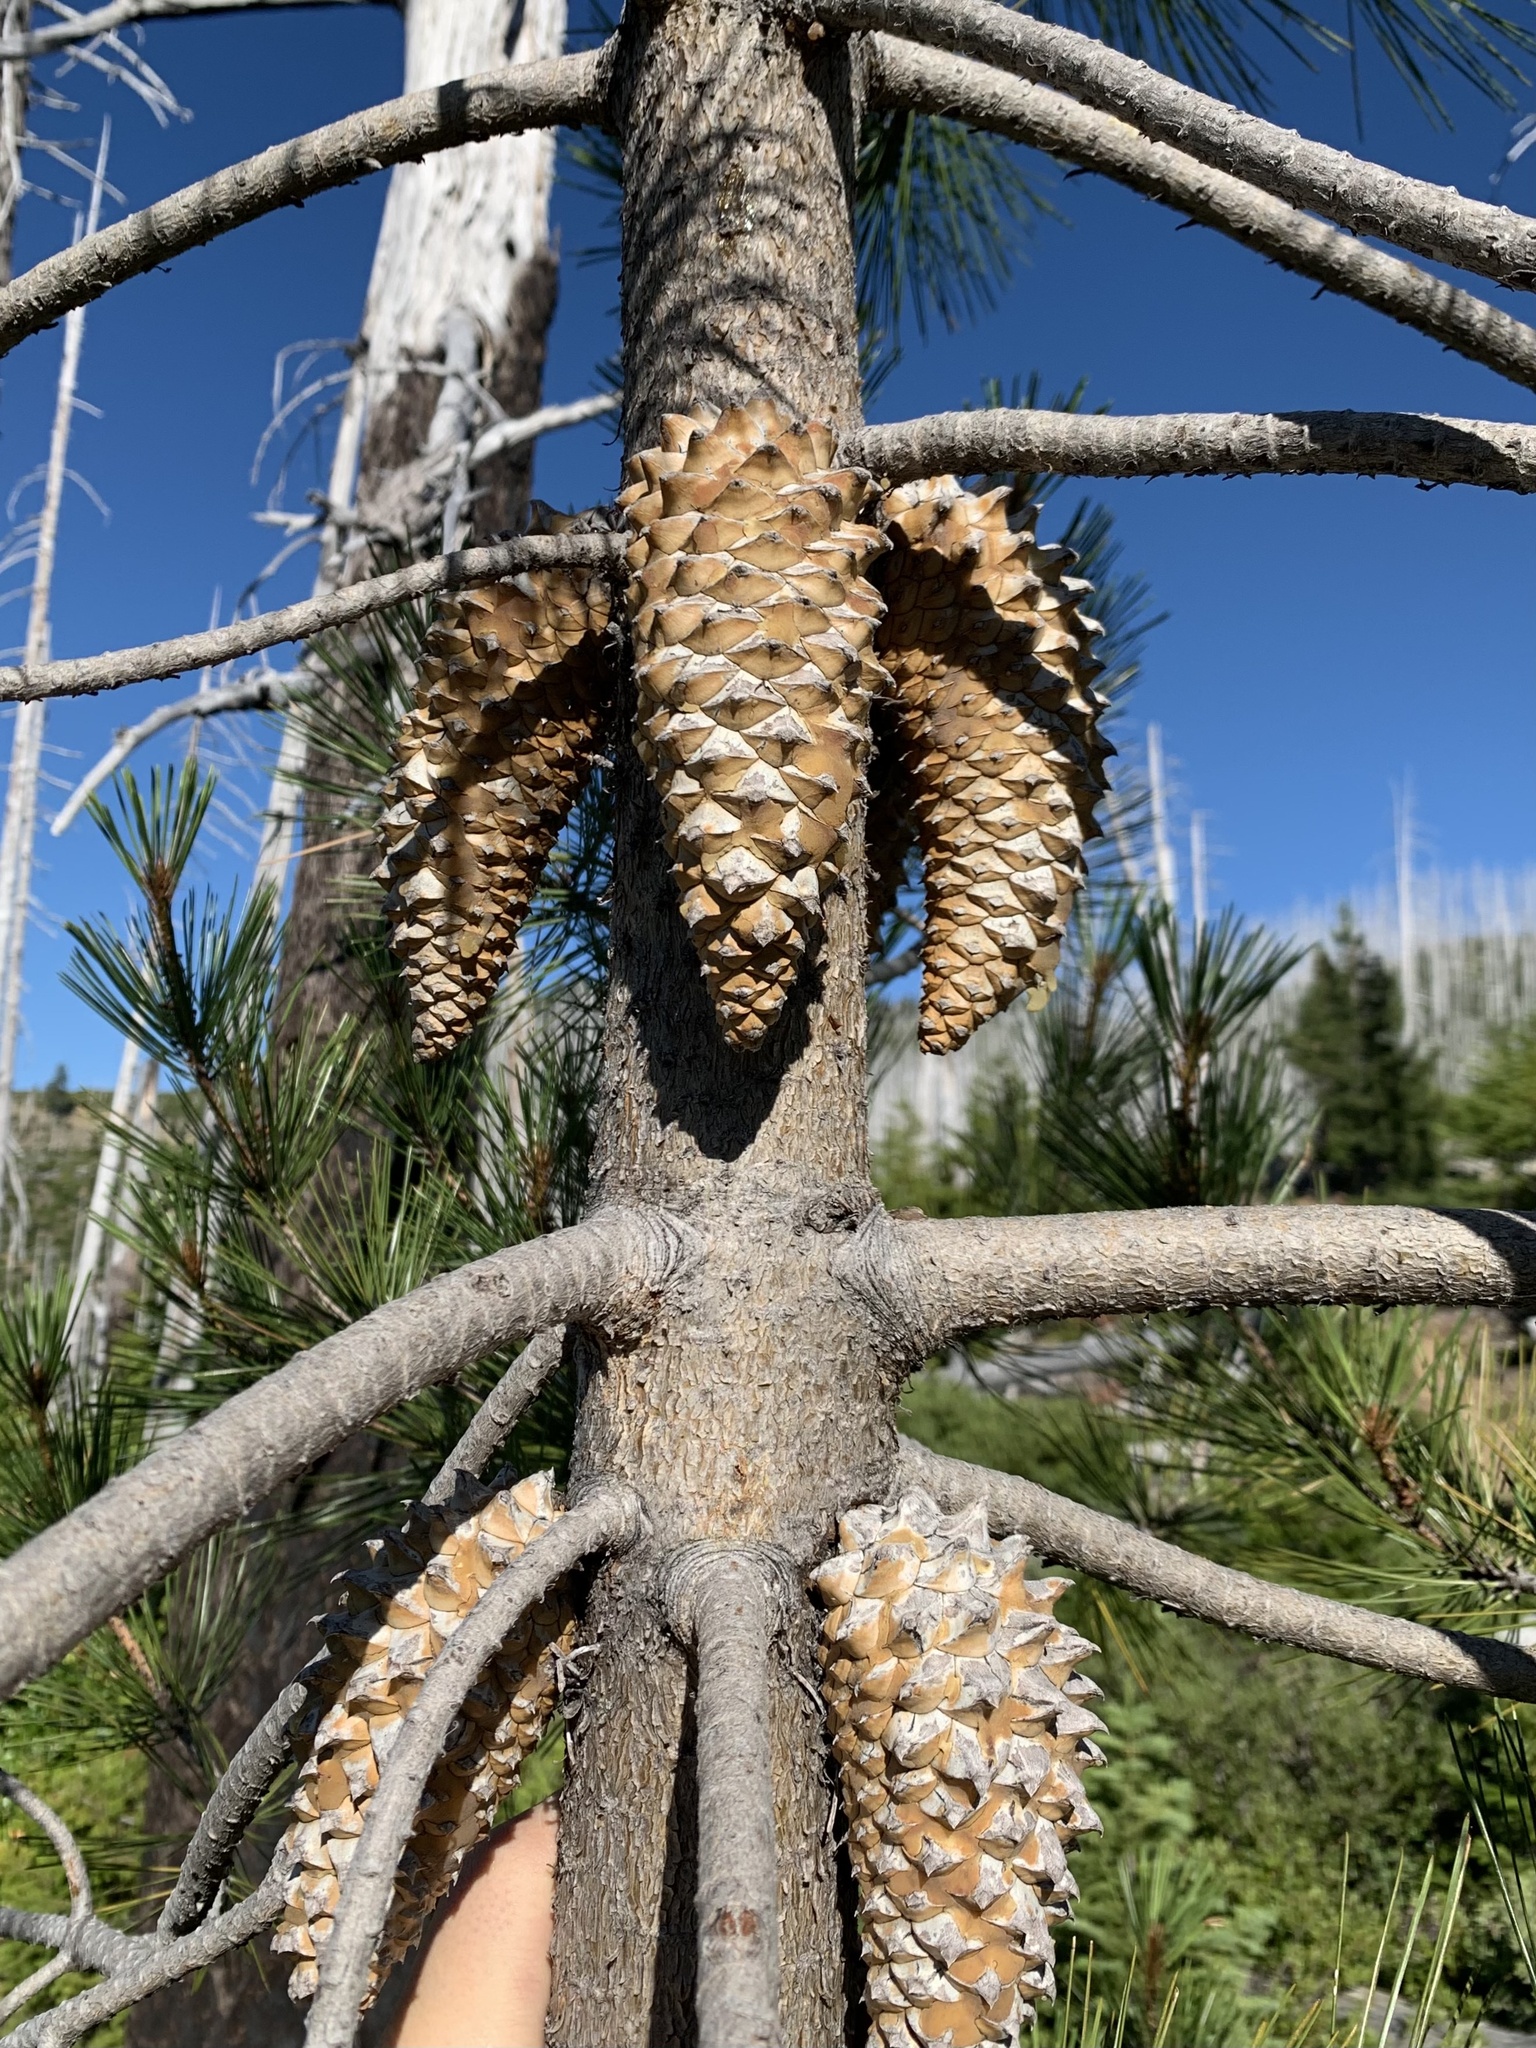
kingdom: Plantae
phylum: Tracheophyta
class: Pinopsida
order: Pinales
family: Pinaceae
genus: Pinus
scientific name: Pinus attenuata
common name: Knobcone pine
